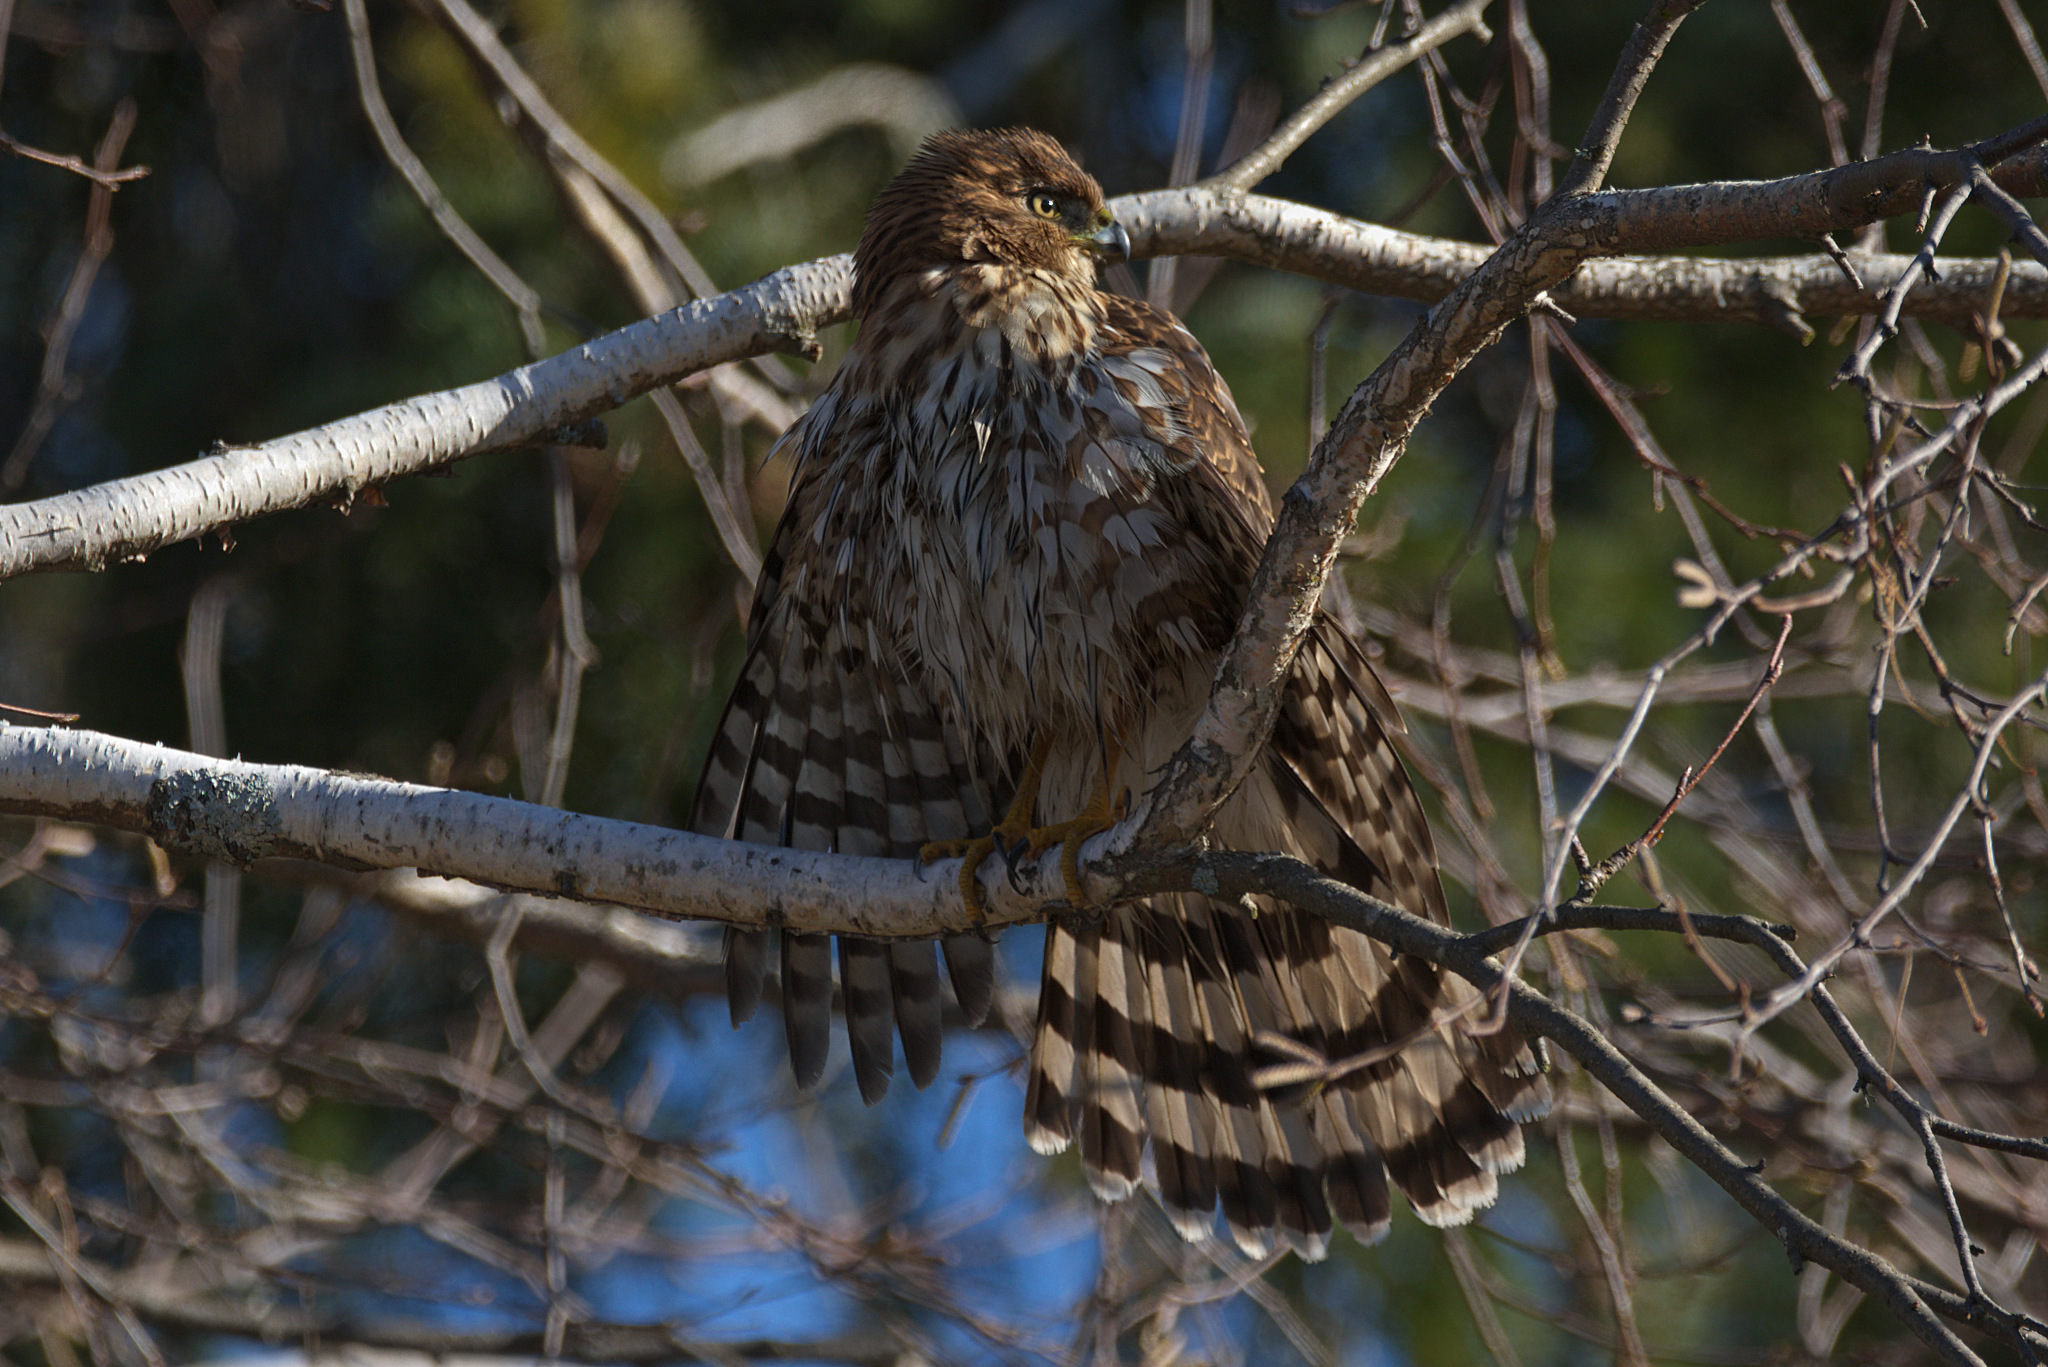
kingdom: Animalia
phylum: Chordata
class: Aves
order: Accipitriformes
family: Accipitridae
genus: Accipiter
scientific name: Accipiter cooperii
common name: Cooper's hawk
